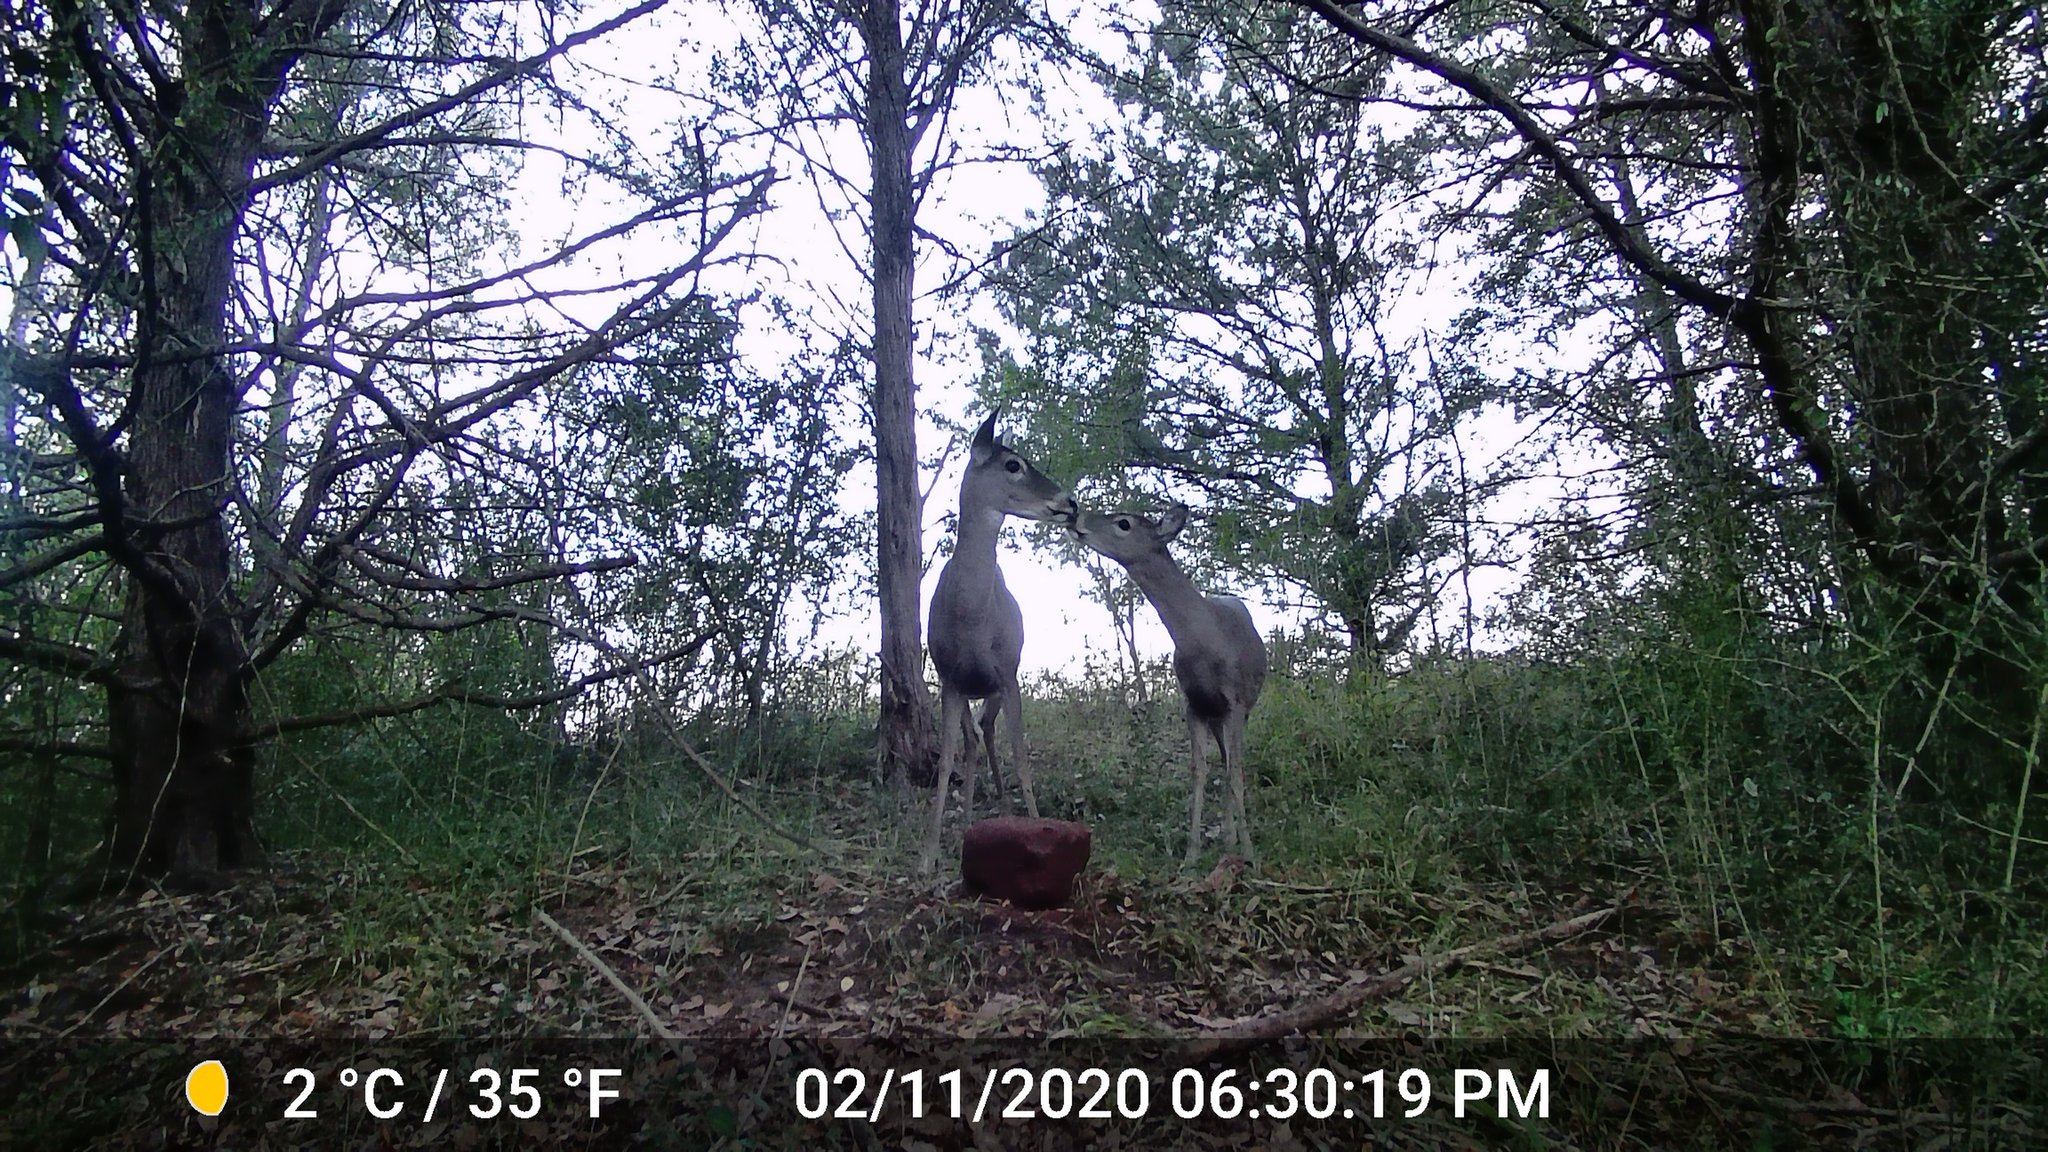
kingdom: Animalia
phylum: Chordata
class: Mammalia
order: Artiodactyla
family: Cervidae
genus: Odocoileus
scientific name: Odocoileus virginianus
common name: White-tailed deer
